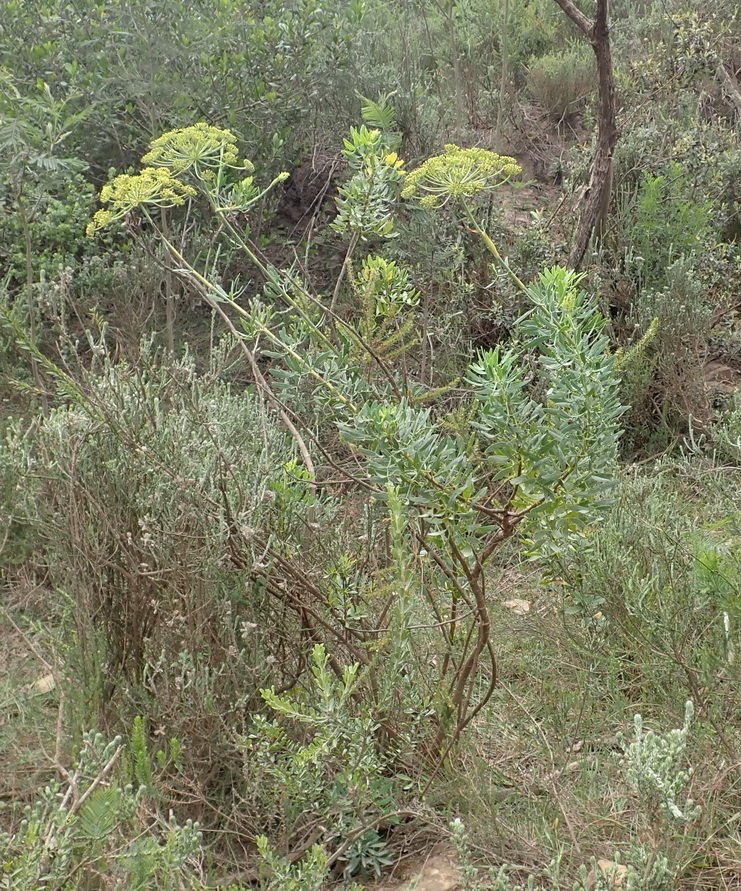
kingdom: Plantae
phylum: Tracheophyta
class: Magnoliopsida
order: Apiales
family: Apiaceae
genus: Notobubon
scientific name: Notobubon laevigatum
